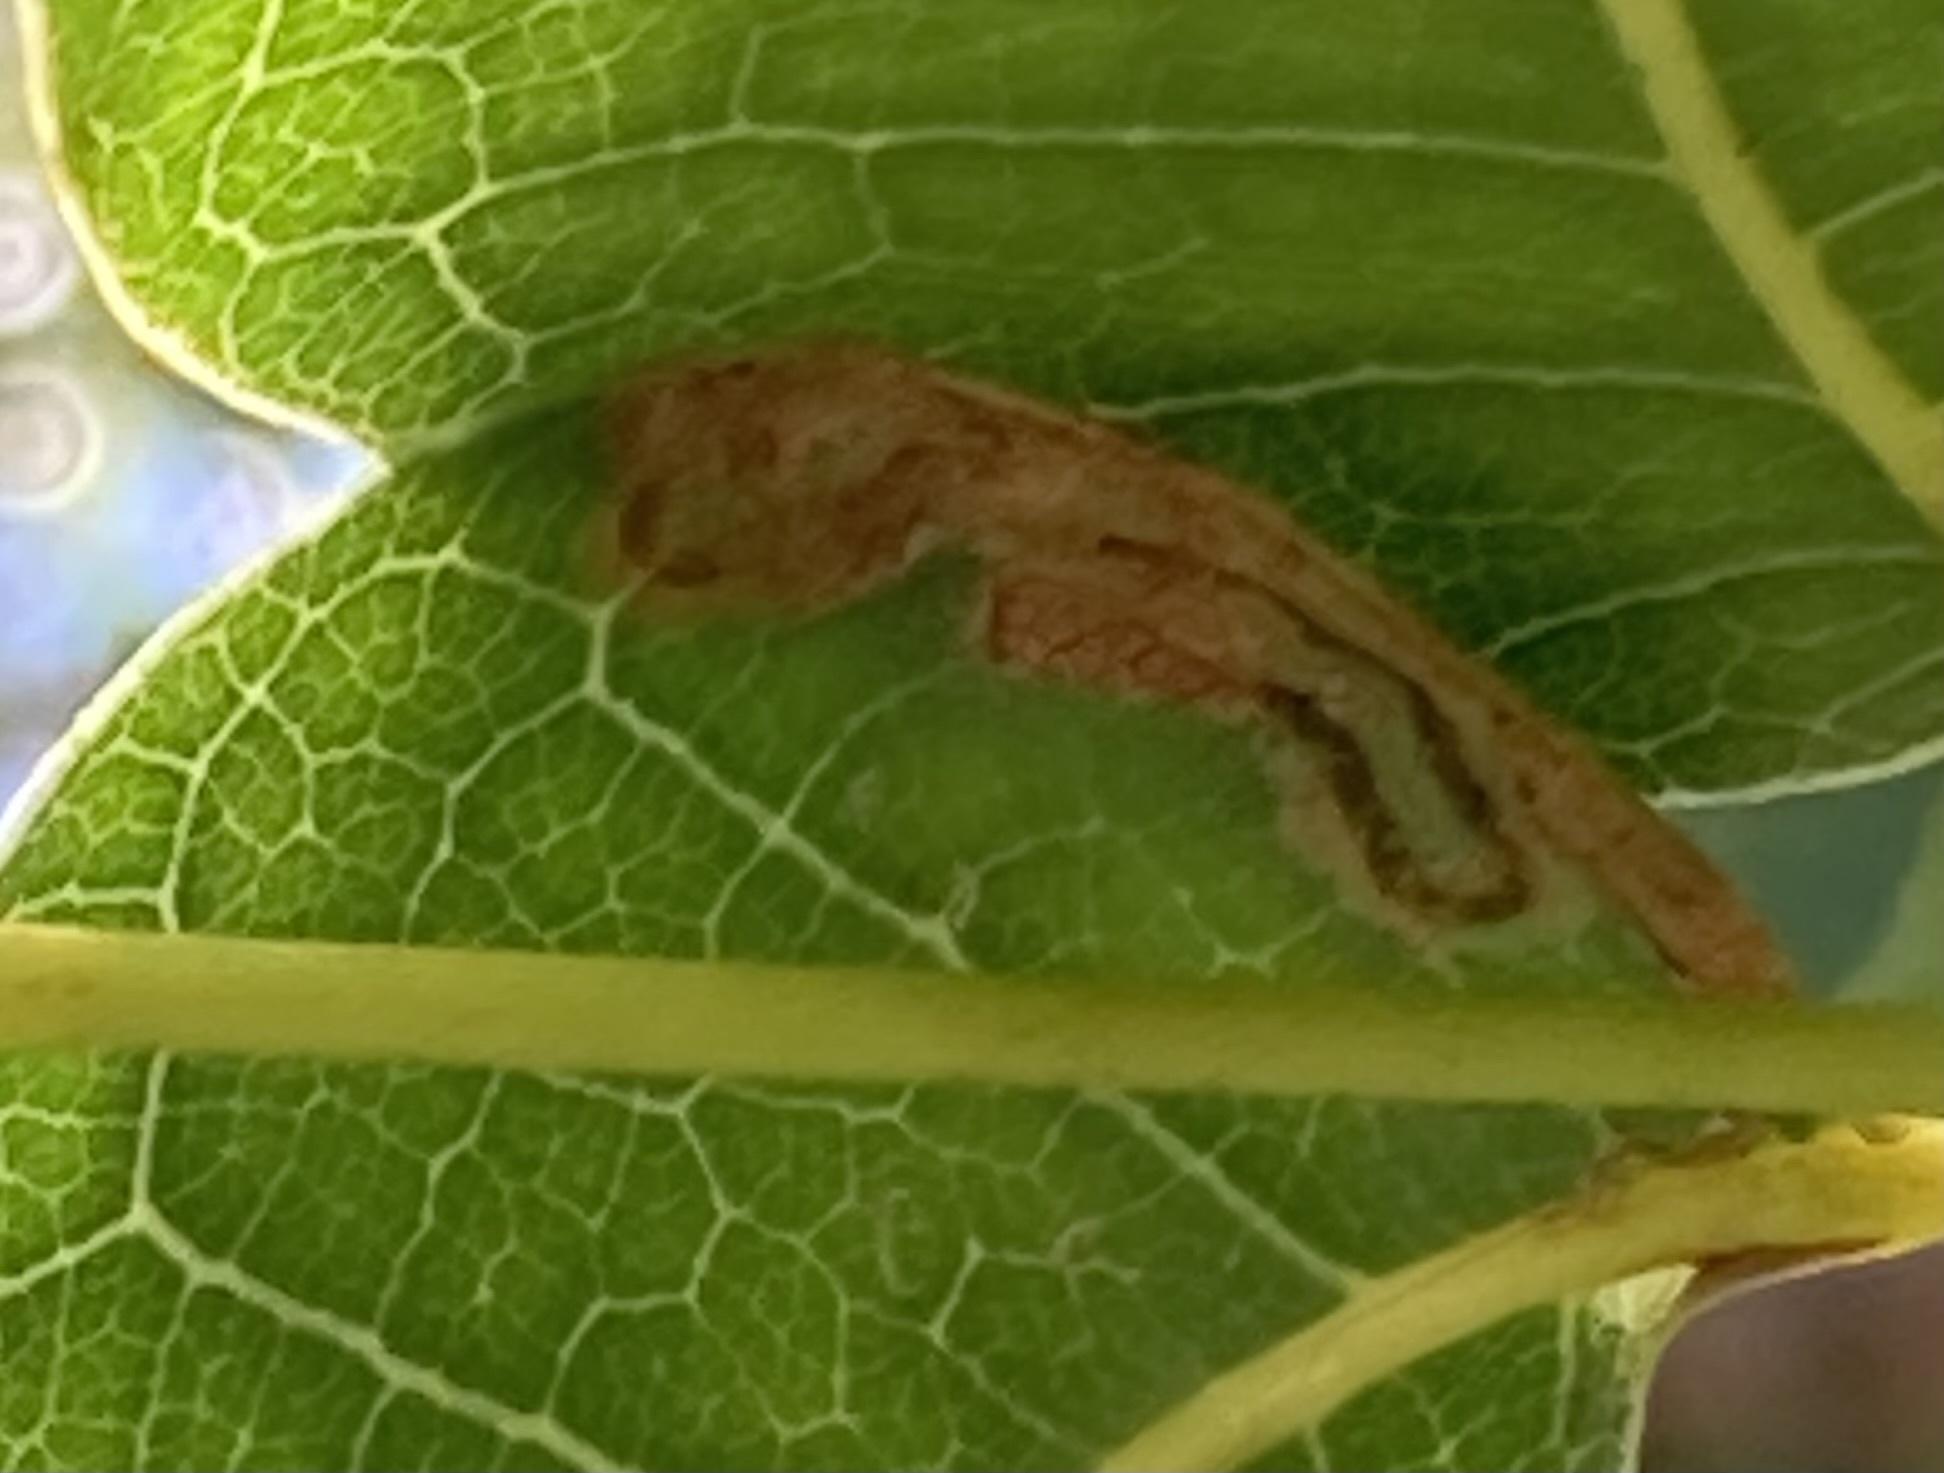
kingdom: Animalia
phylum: Arthropoda
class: Insecta
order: Lepidoptera
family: Gracillariidae
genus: Phyllocnistis
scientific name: Phyllocnistis meliacella
